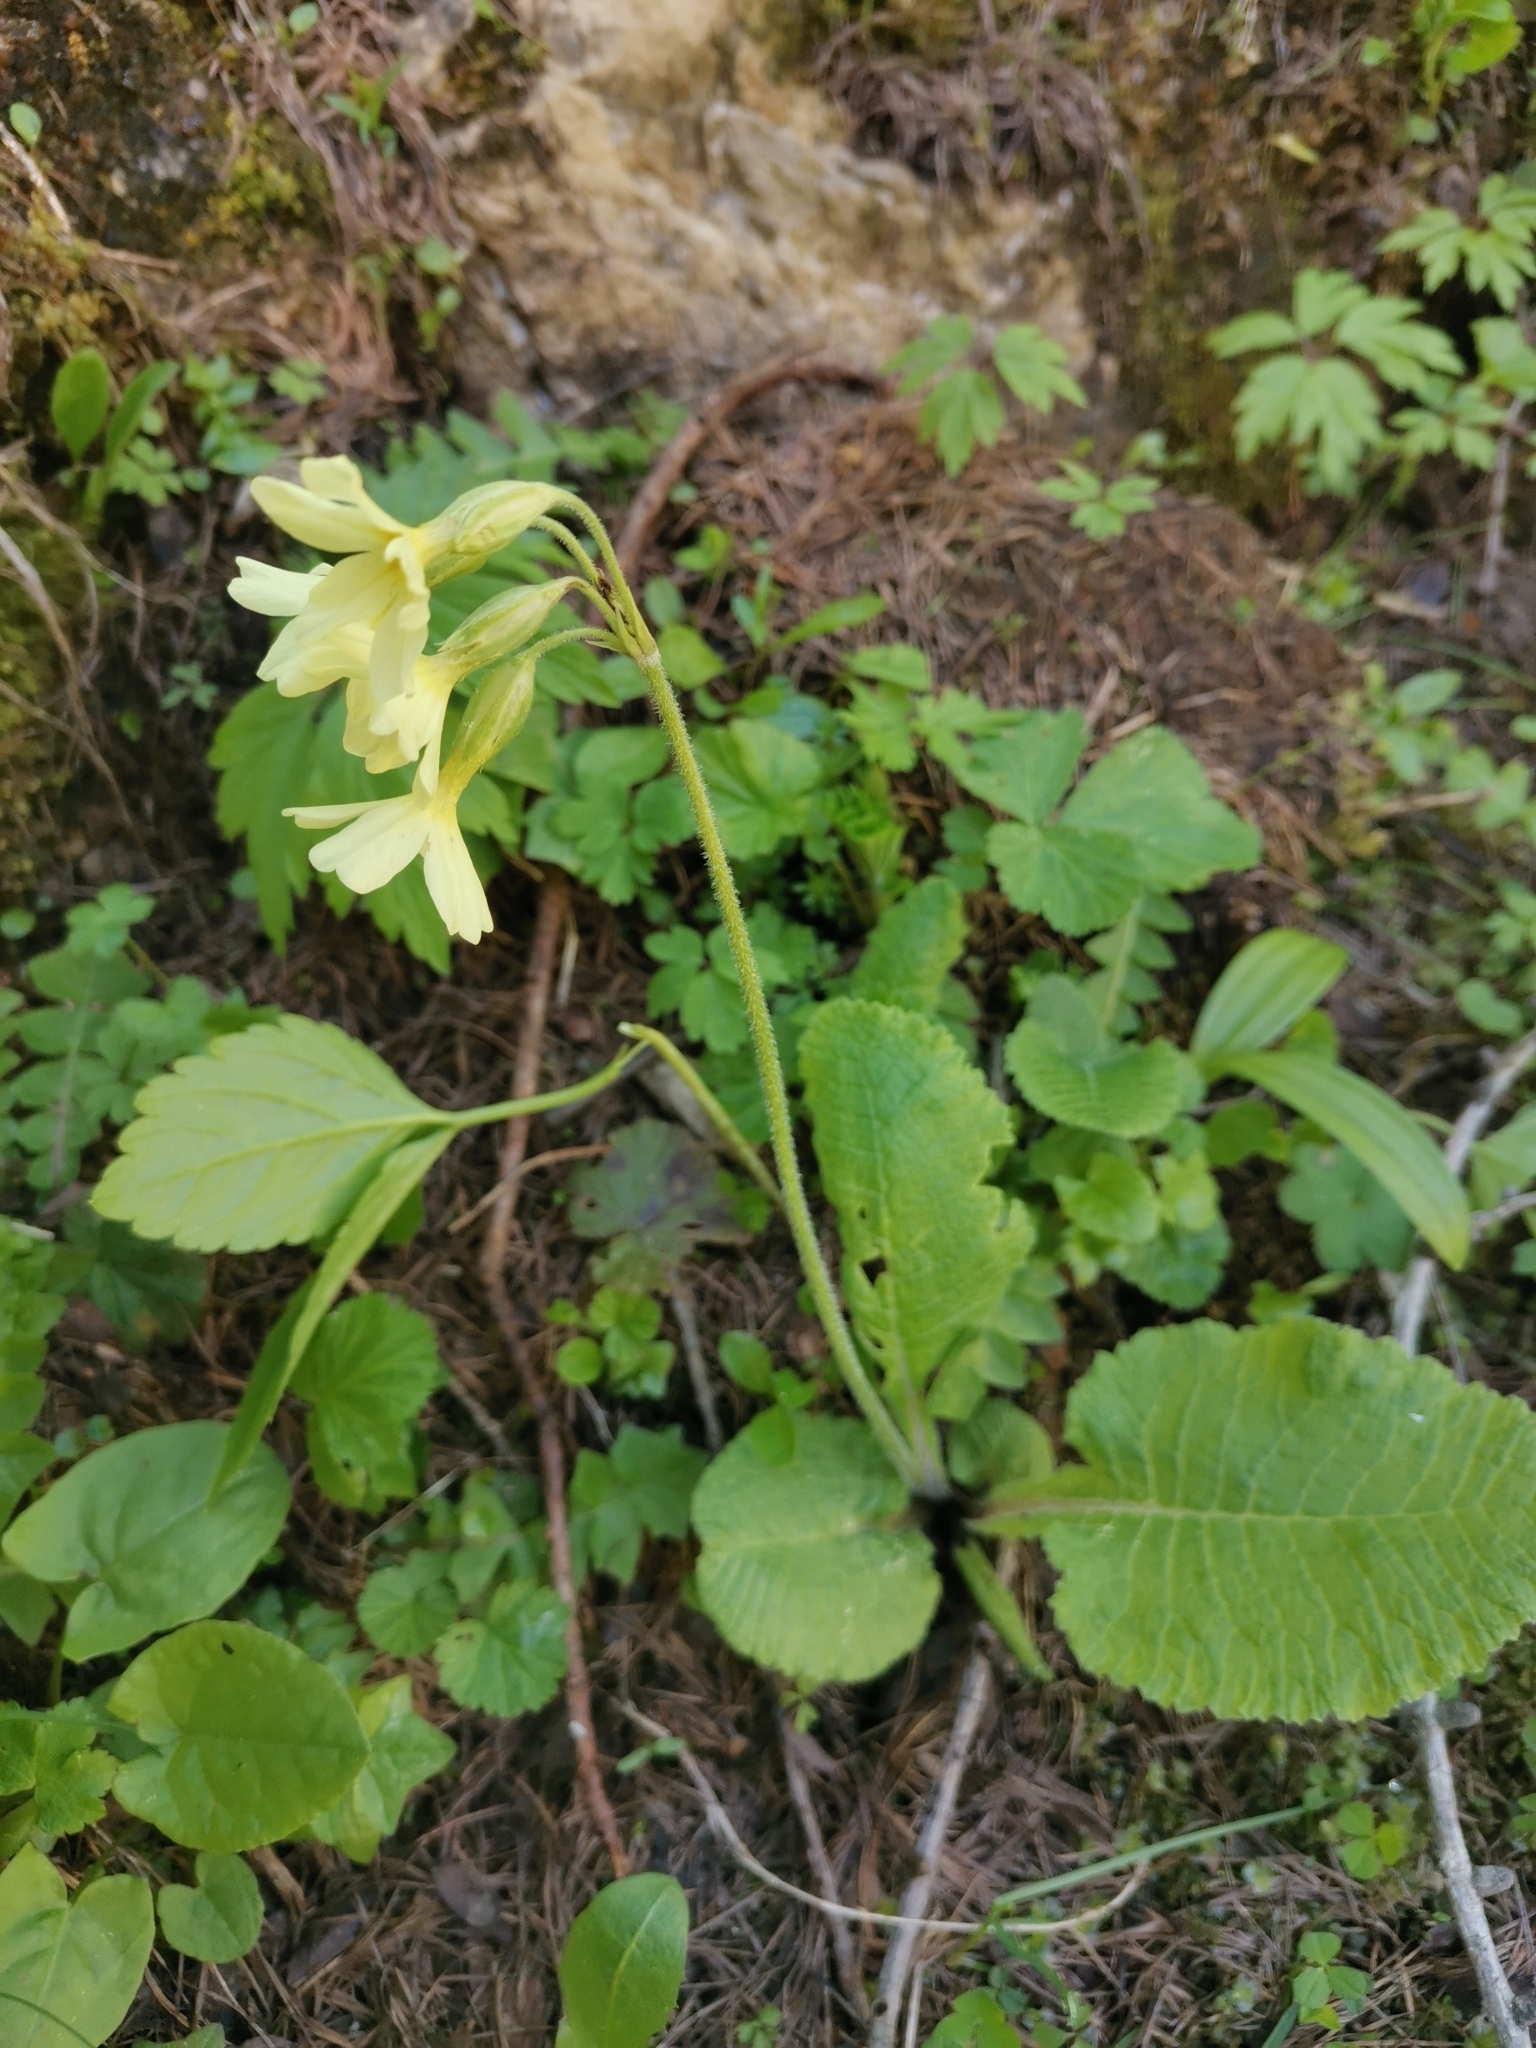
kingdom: Plantae
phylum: Tracheophyta
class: Magnoliopsida
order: Ericales
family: Primulaceae
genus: Primula
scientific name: Primula elatior
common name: Oxlip
